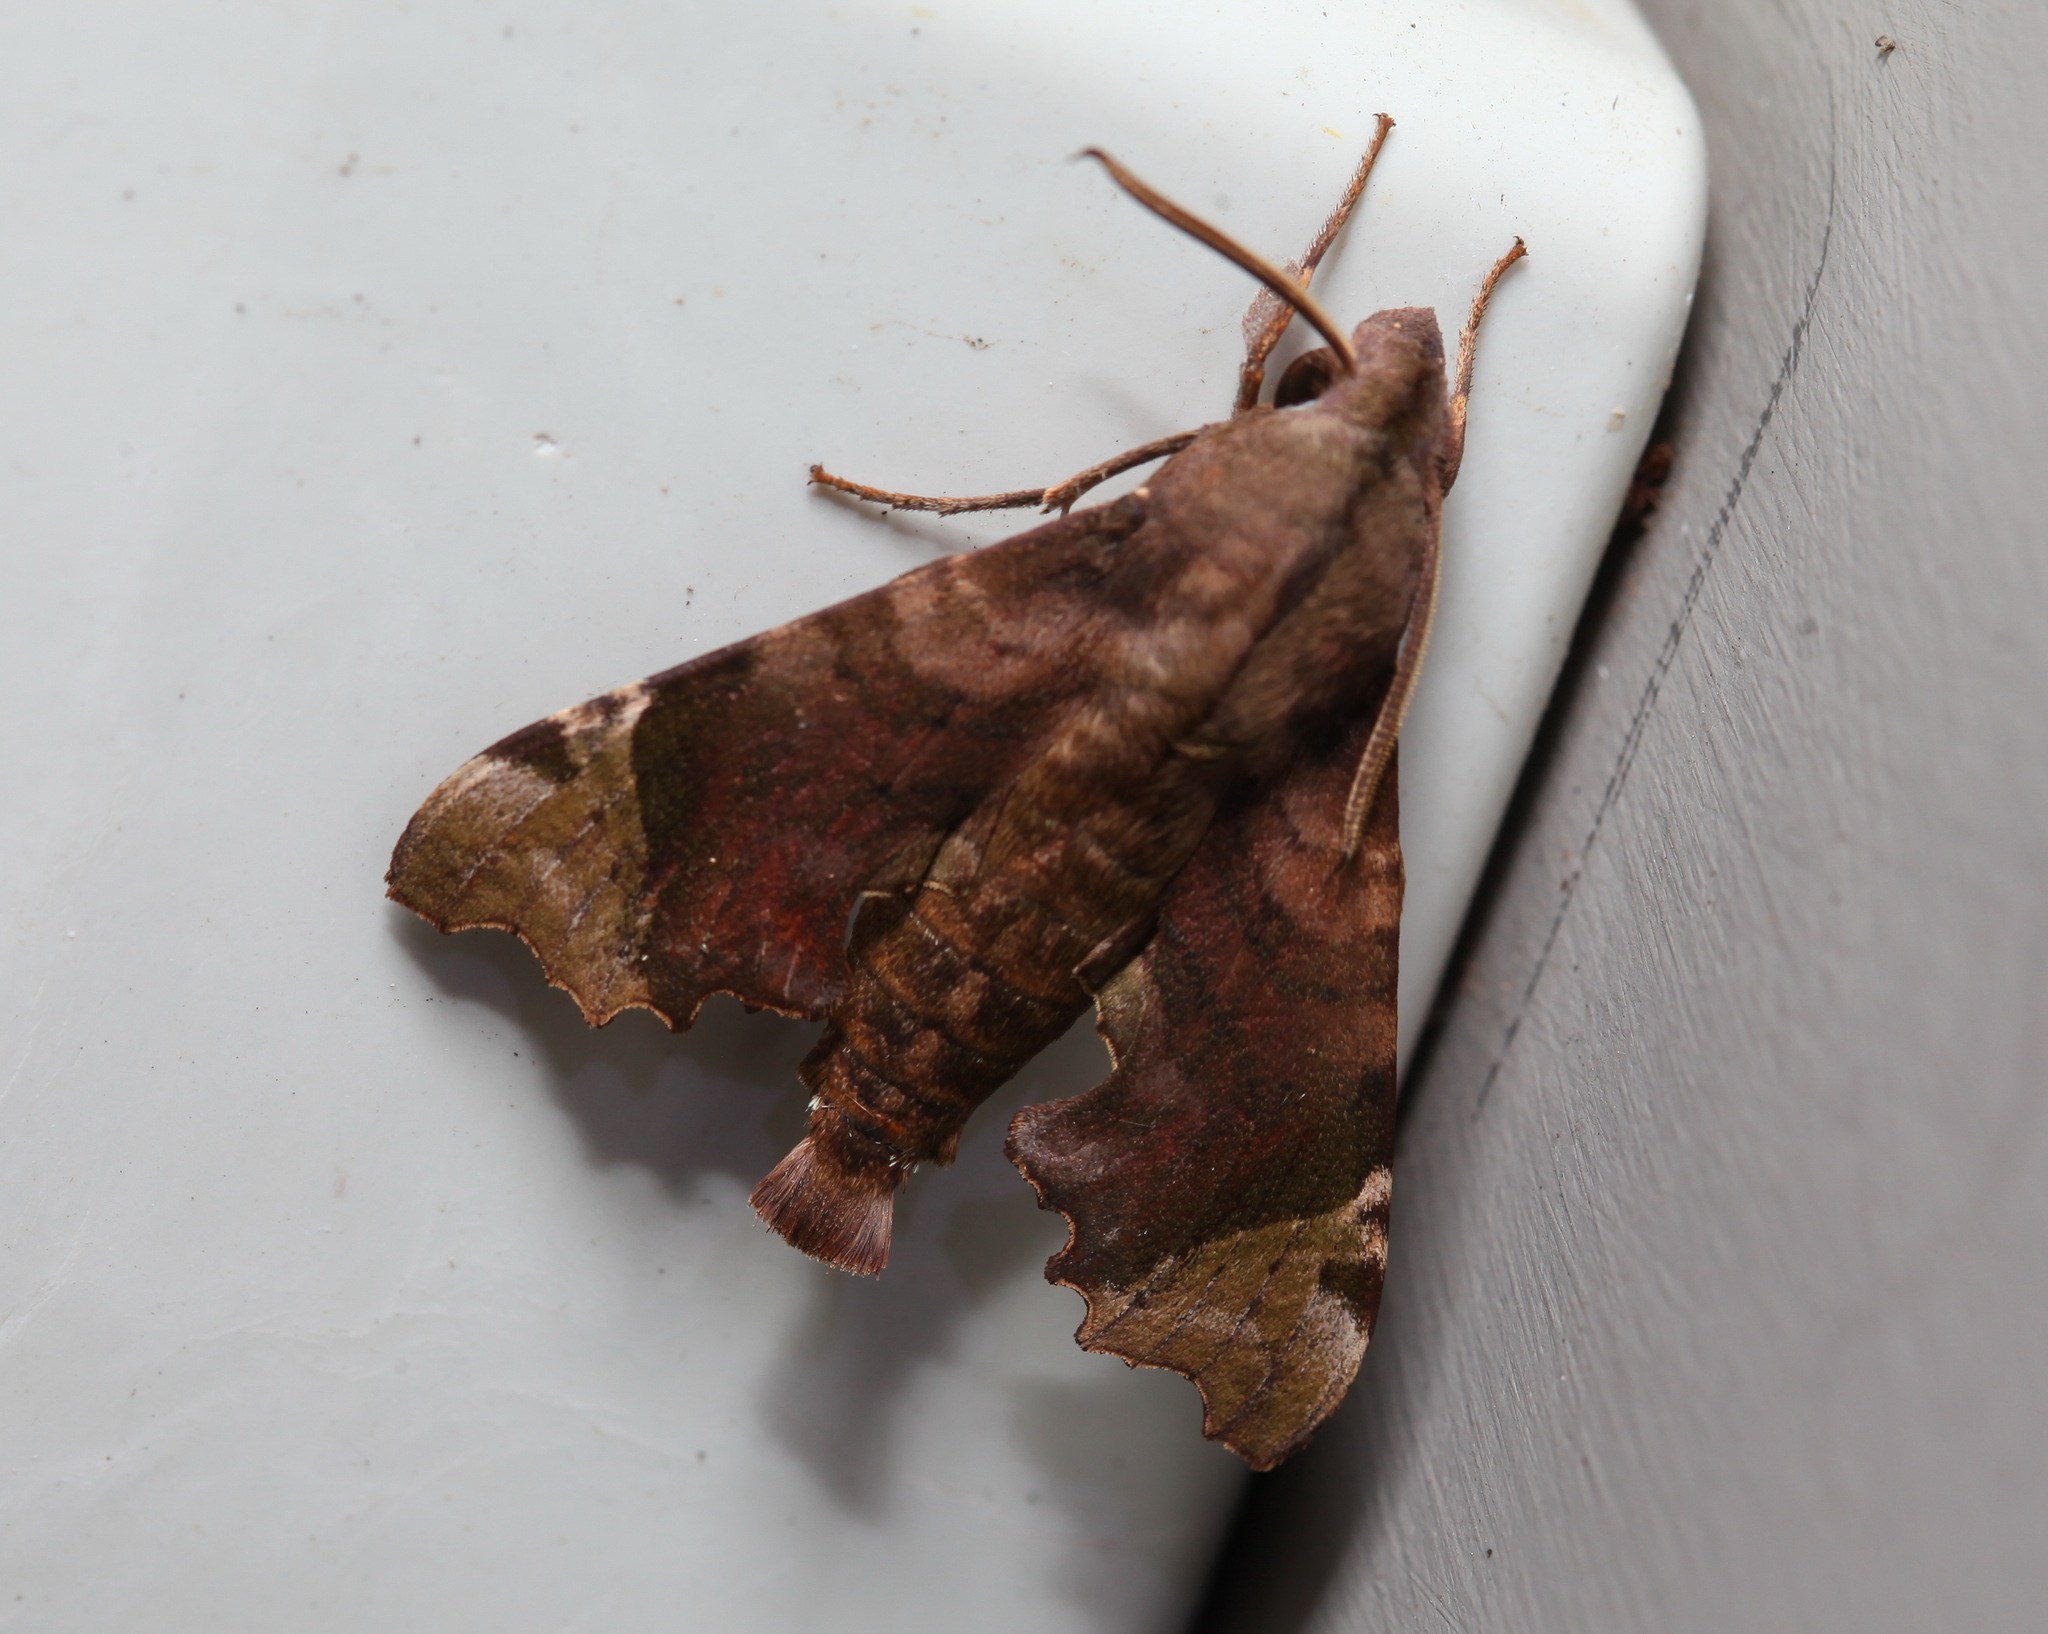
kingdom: Animalia
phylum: Arthropoda
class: Insecta
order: Lepidoptera
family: Sphingidae
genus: Temnora
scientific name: Temnora zantus
